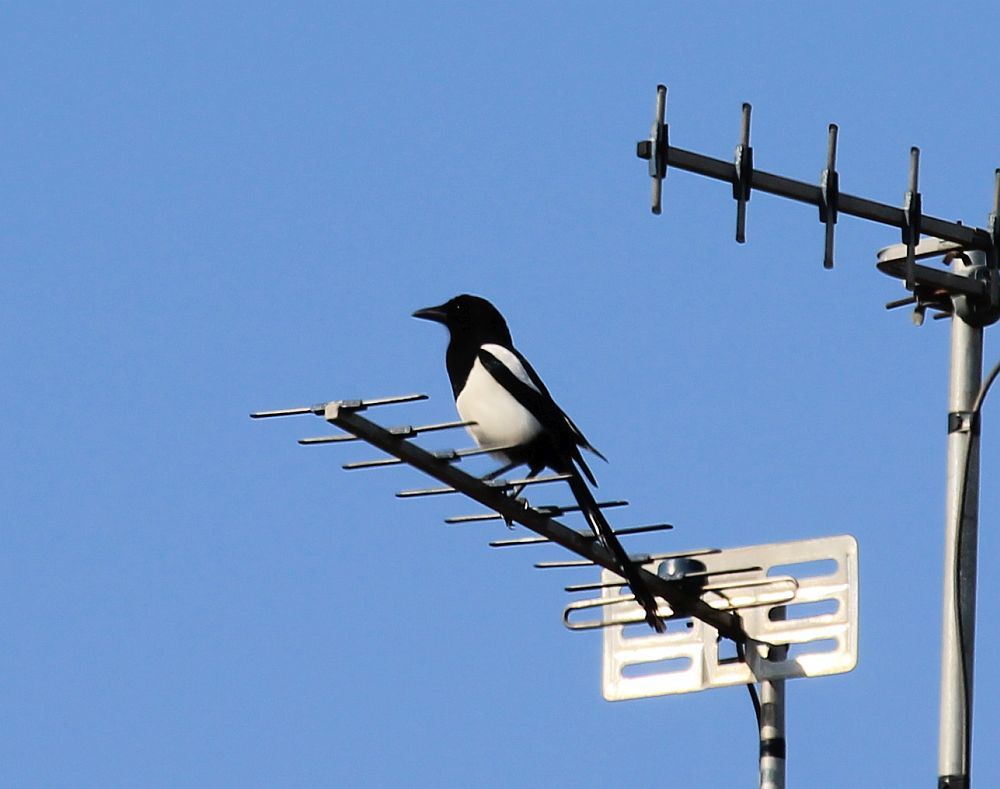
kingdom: Animalia
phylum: Chordata
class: Aves
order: Passeriformes
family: Corvidae
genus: Pica
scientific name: Pica pica
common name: Eurasian magpie
